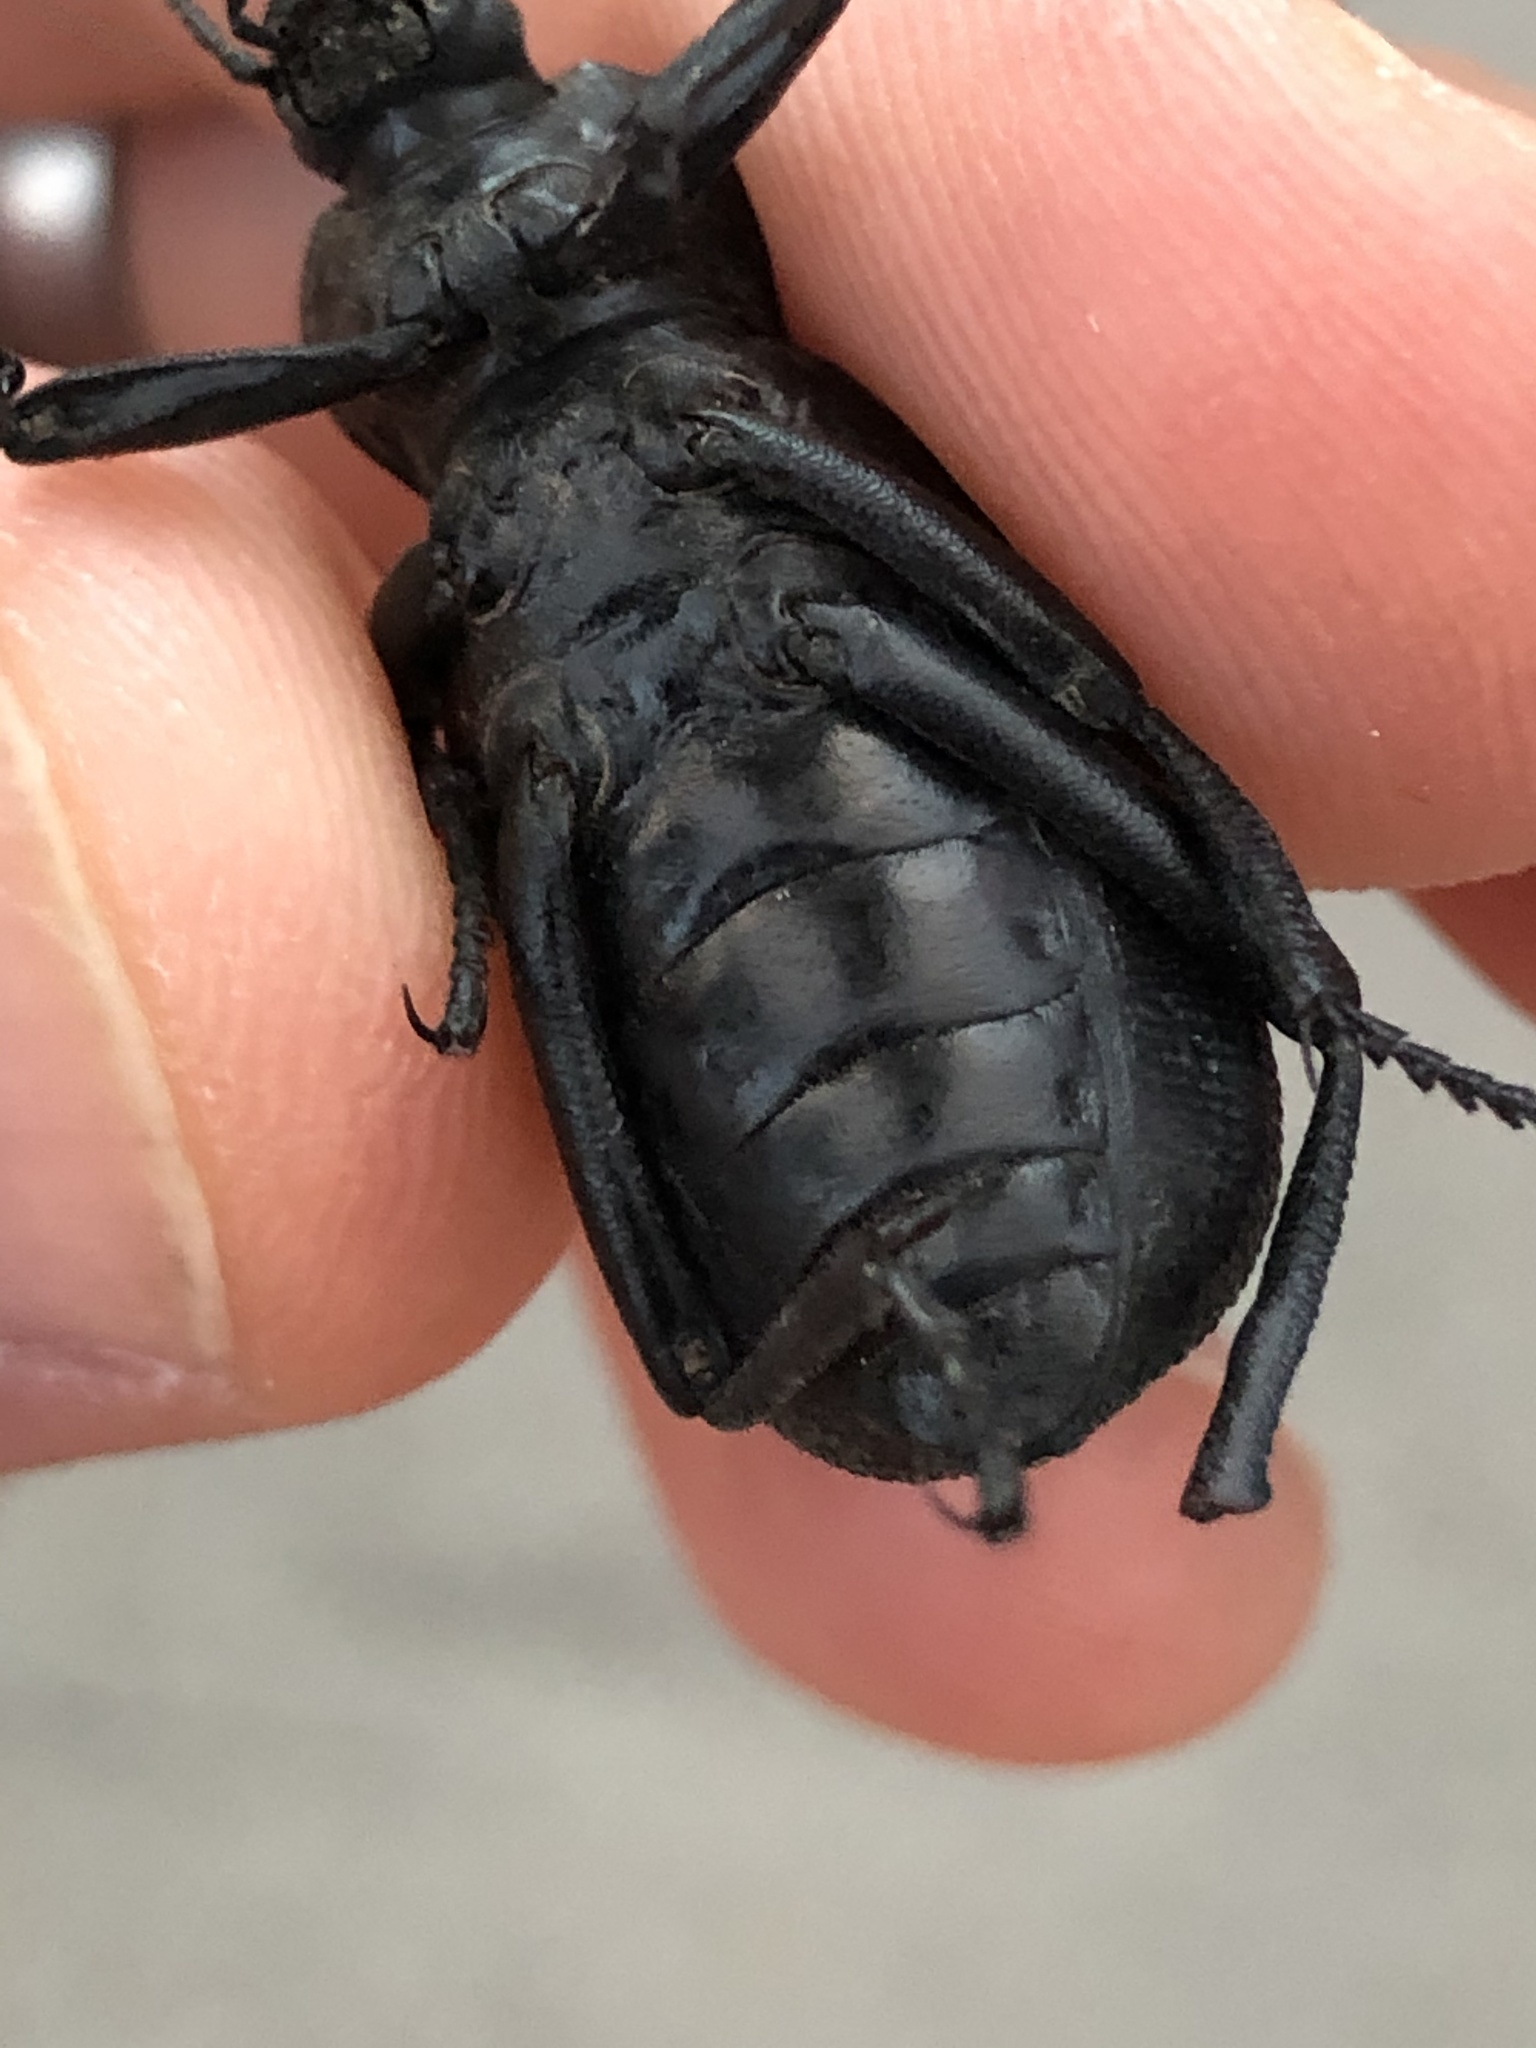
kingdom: Animalia
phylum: Arthropoda
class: Insecta
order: Coleoptera
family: Tenebrionidae
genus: Eleodes
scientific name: Eleodes obscura
